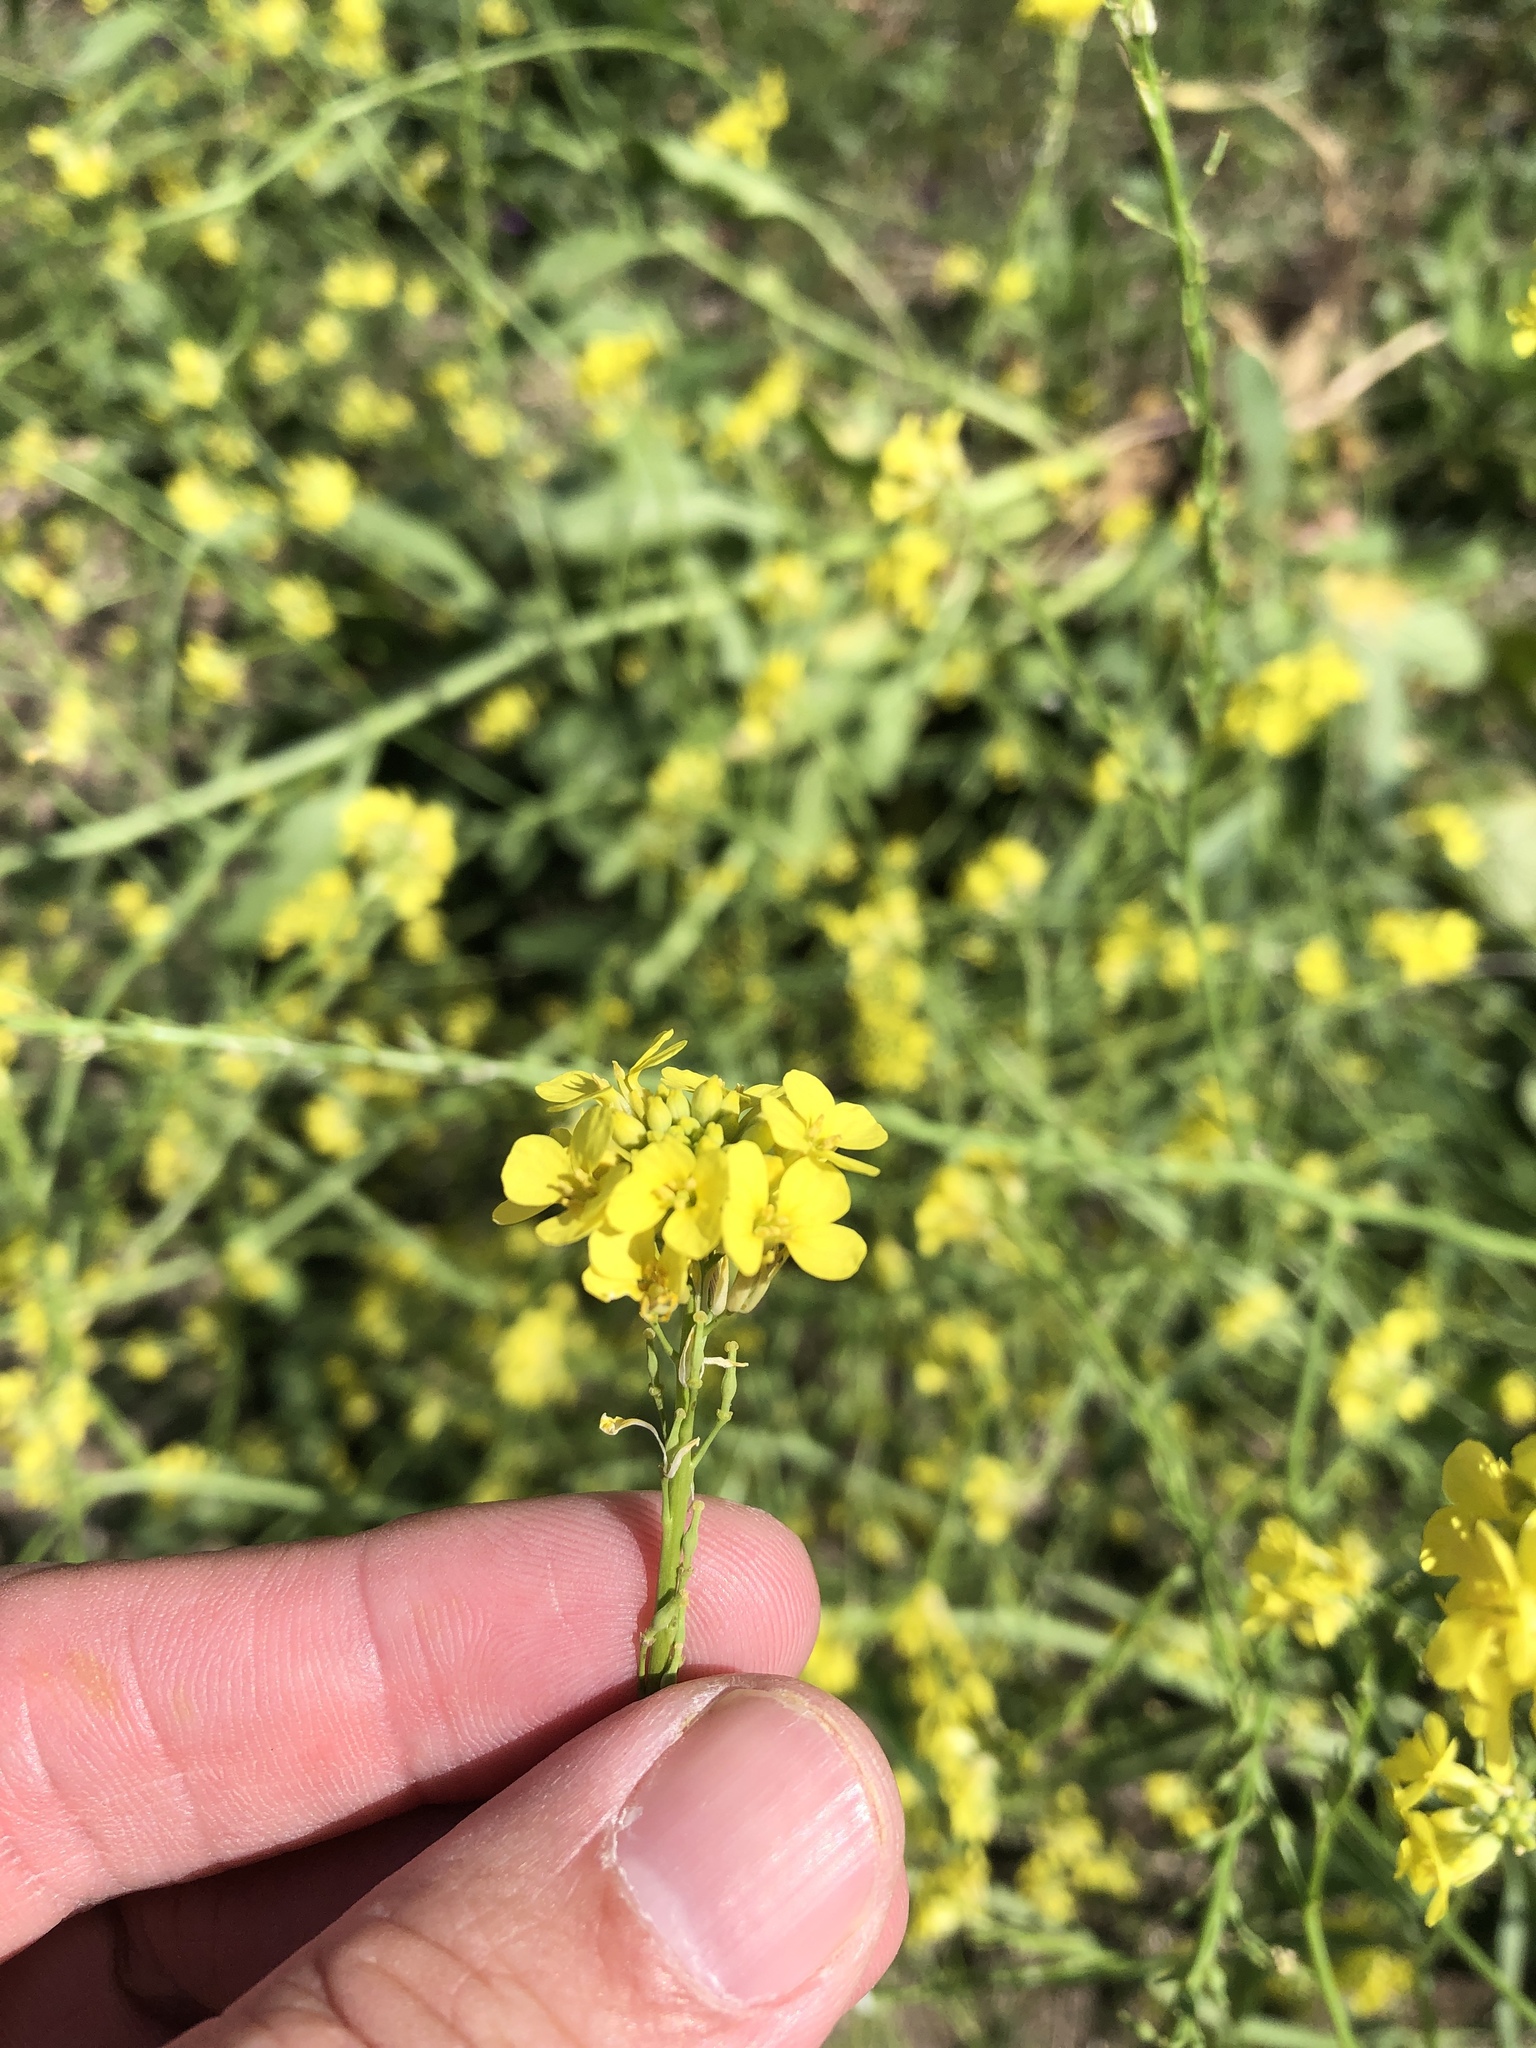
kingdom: Plantae
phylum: Tracheophyta
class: Magnoliopsida
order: Brassicales
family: Brassicaceae
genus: Rapistrum
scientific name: Rapistrum rugosum
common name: Annual bastardcabbage
